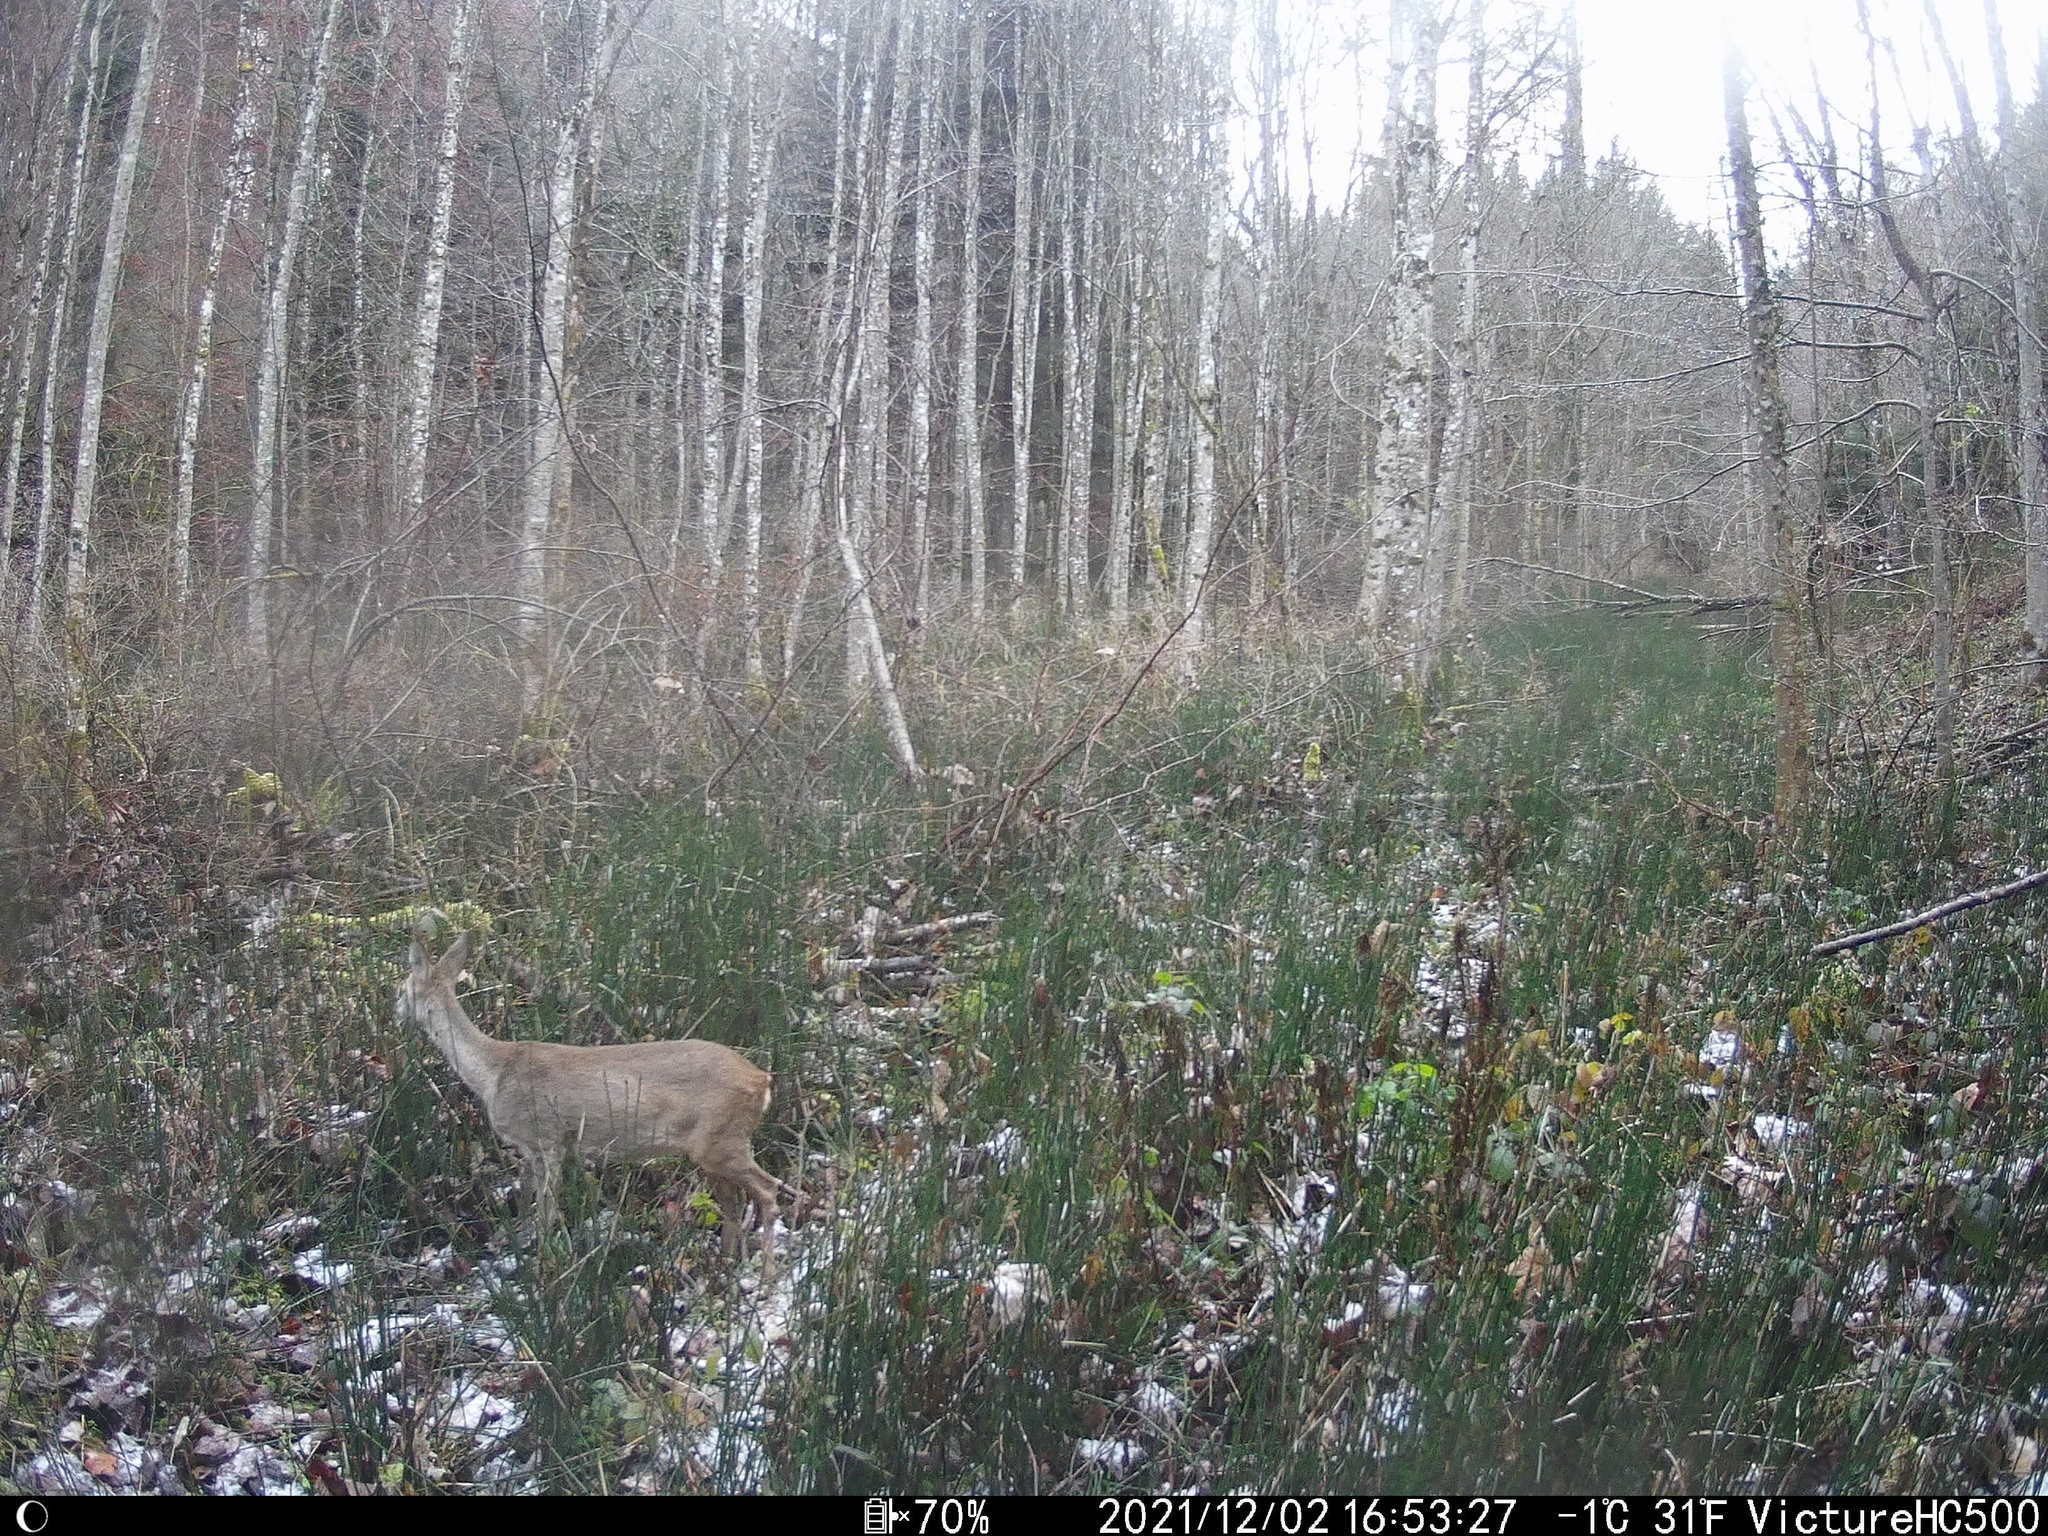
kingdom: Animalia
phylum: Chordata
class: Mammalia
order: Artiodactyla
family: Cervidae
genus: Capreolus
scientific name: Capreolus capreolus
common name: Western roe deer
